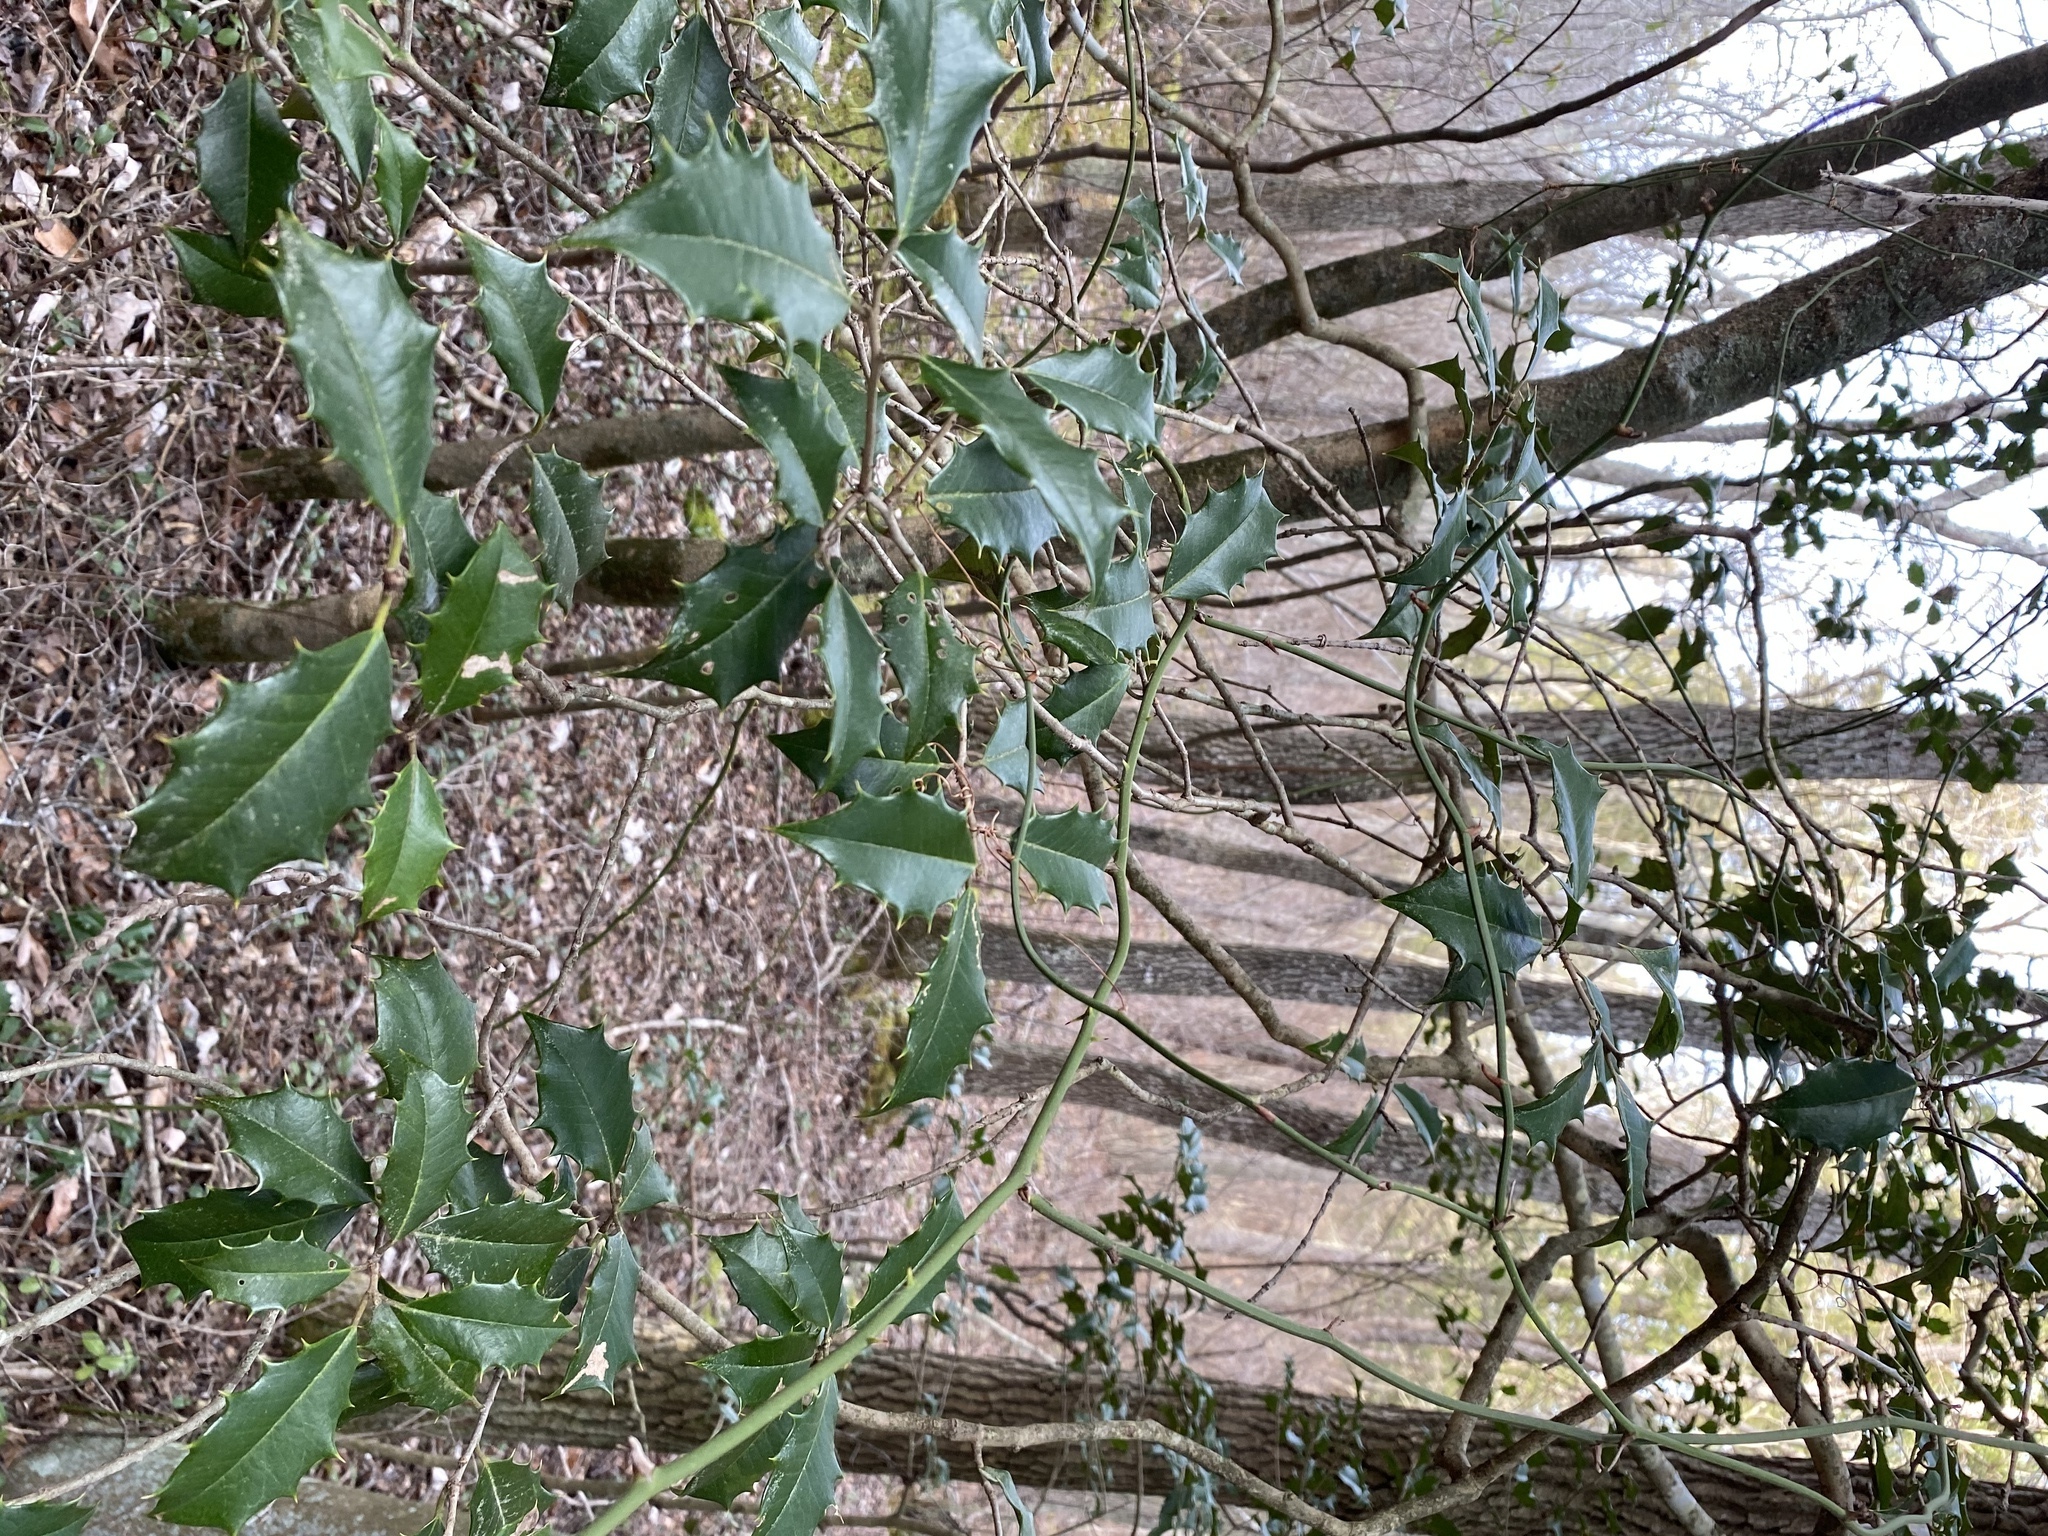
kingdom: Plantae
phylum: Tracheophyta
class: Magnoliopsida
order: Aquifoliales
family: Aquifoliaceae
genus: Ilex
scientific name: Ilex opaca
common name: American holly
